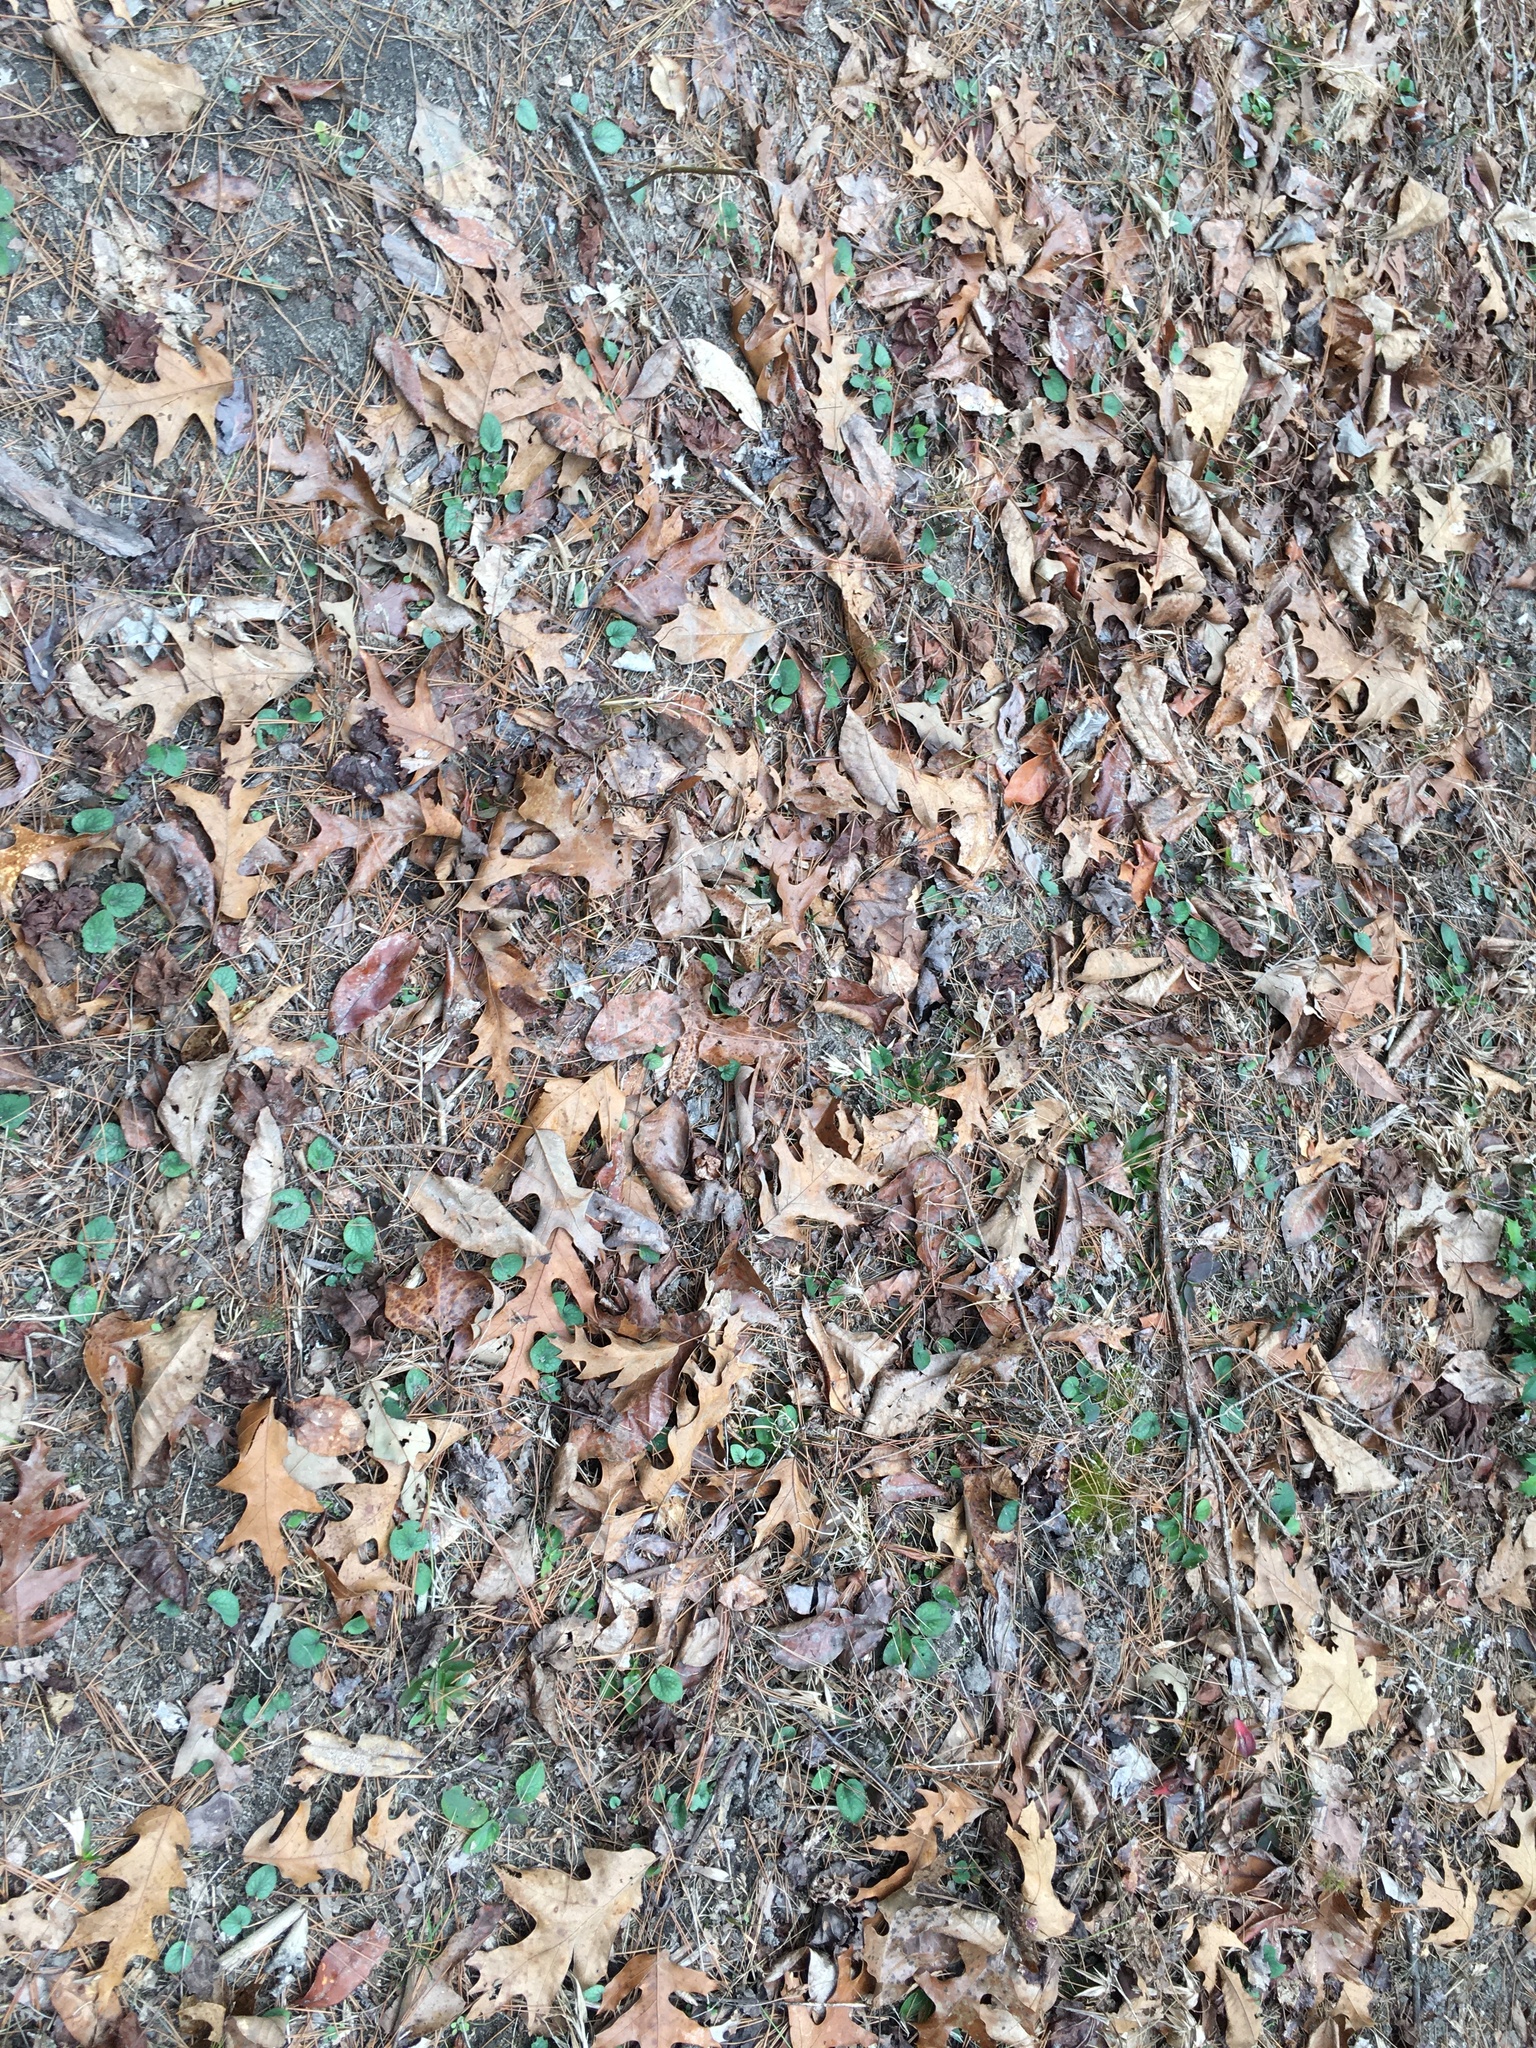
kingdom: Plantae
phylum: Tracheophyta
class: Magnoliopsida
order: Malpighiales
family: Violaceae
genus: Viola
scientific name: Viola hirsutula
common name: Southern wood violet
